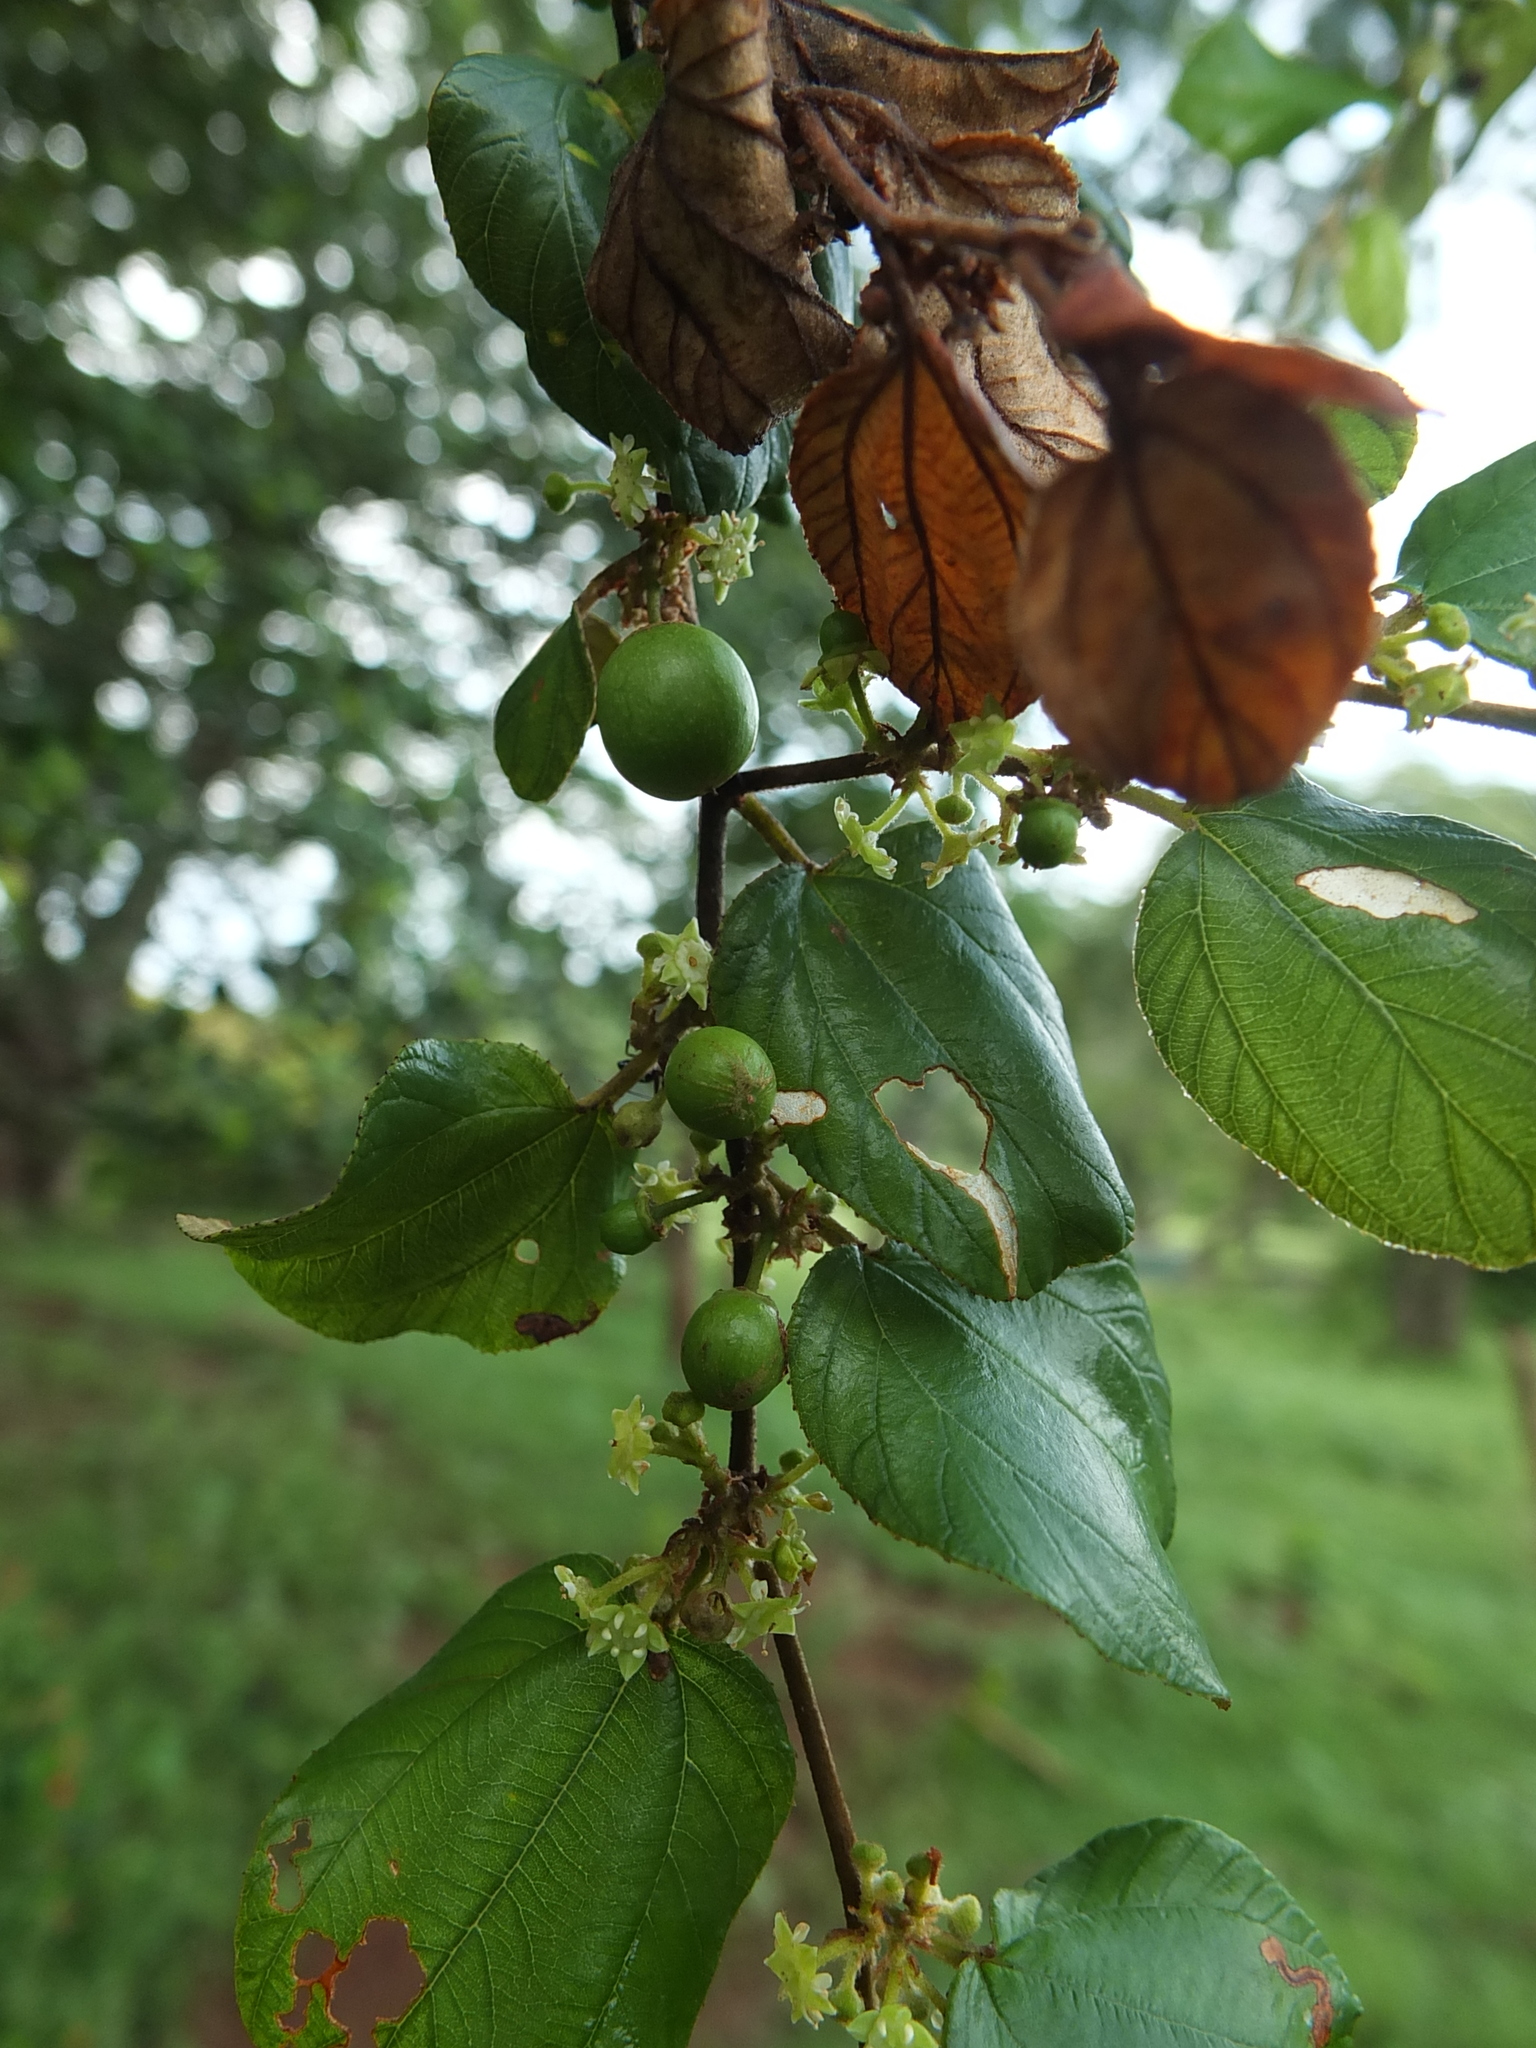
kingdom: Plantae
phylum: Tracheophyta
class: Magnoliopsida
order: Rosales
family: Rhamnaceae
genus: Ziziphus
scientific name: Ziziphus mauritiana
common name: Indian jujube
